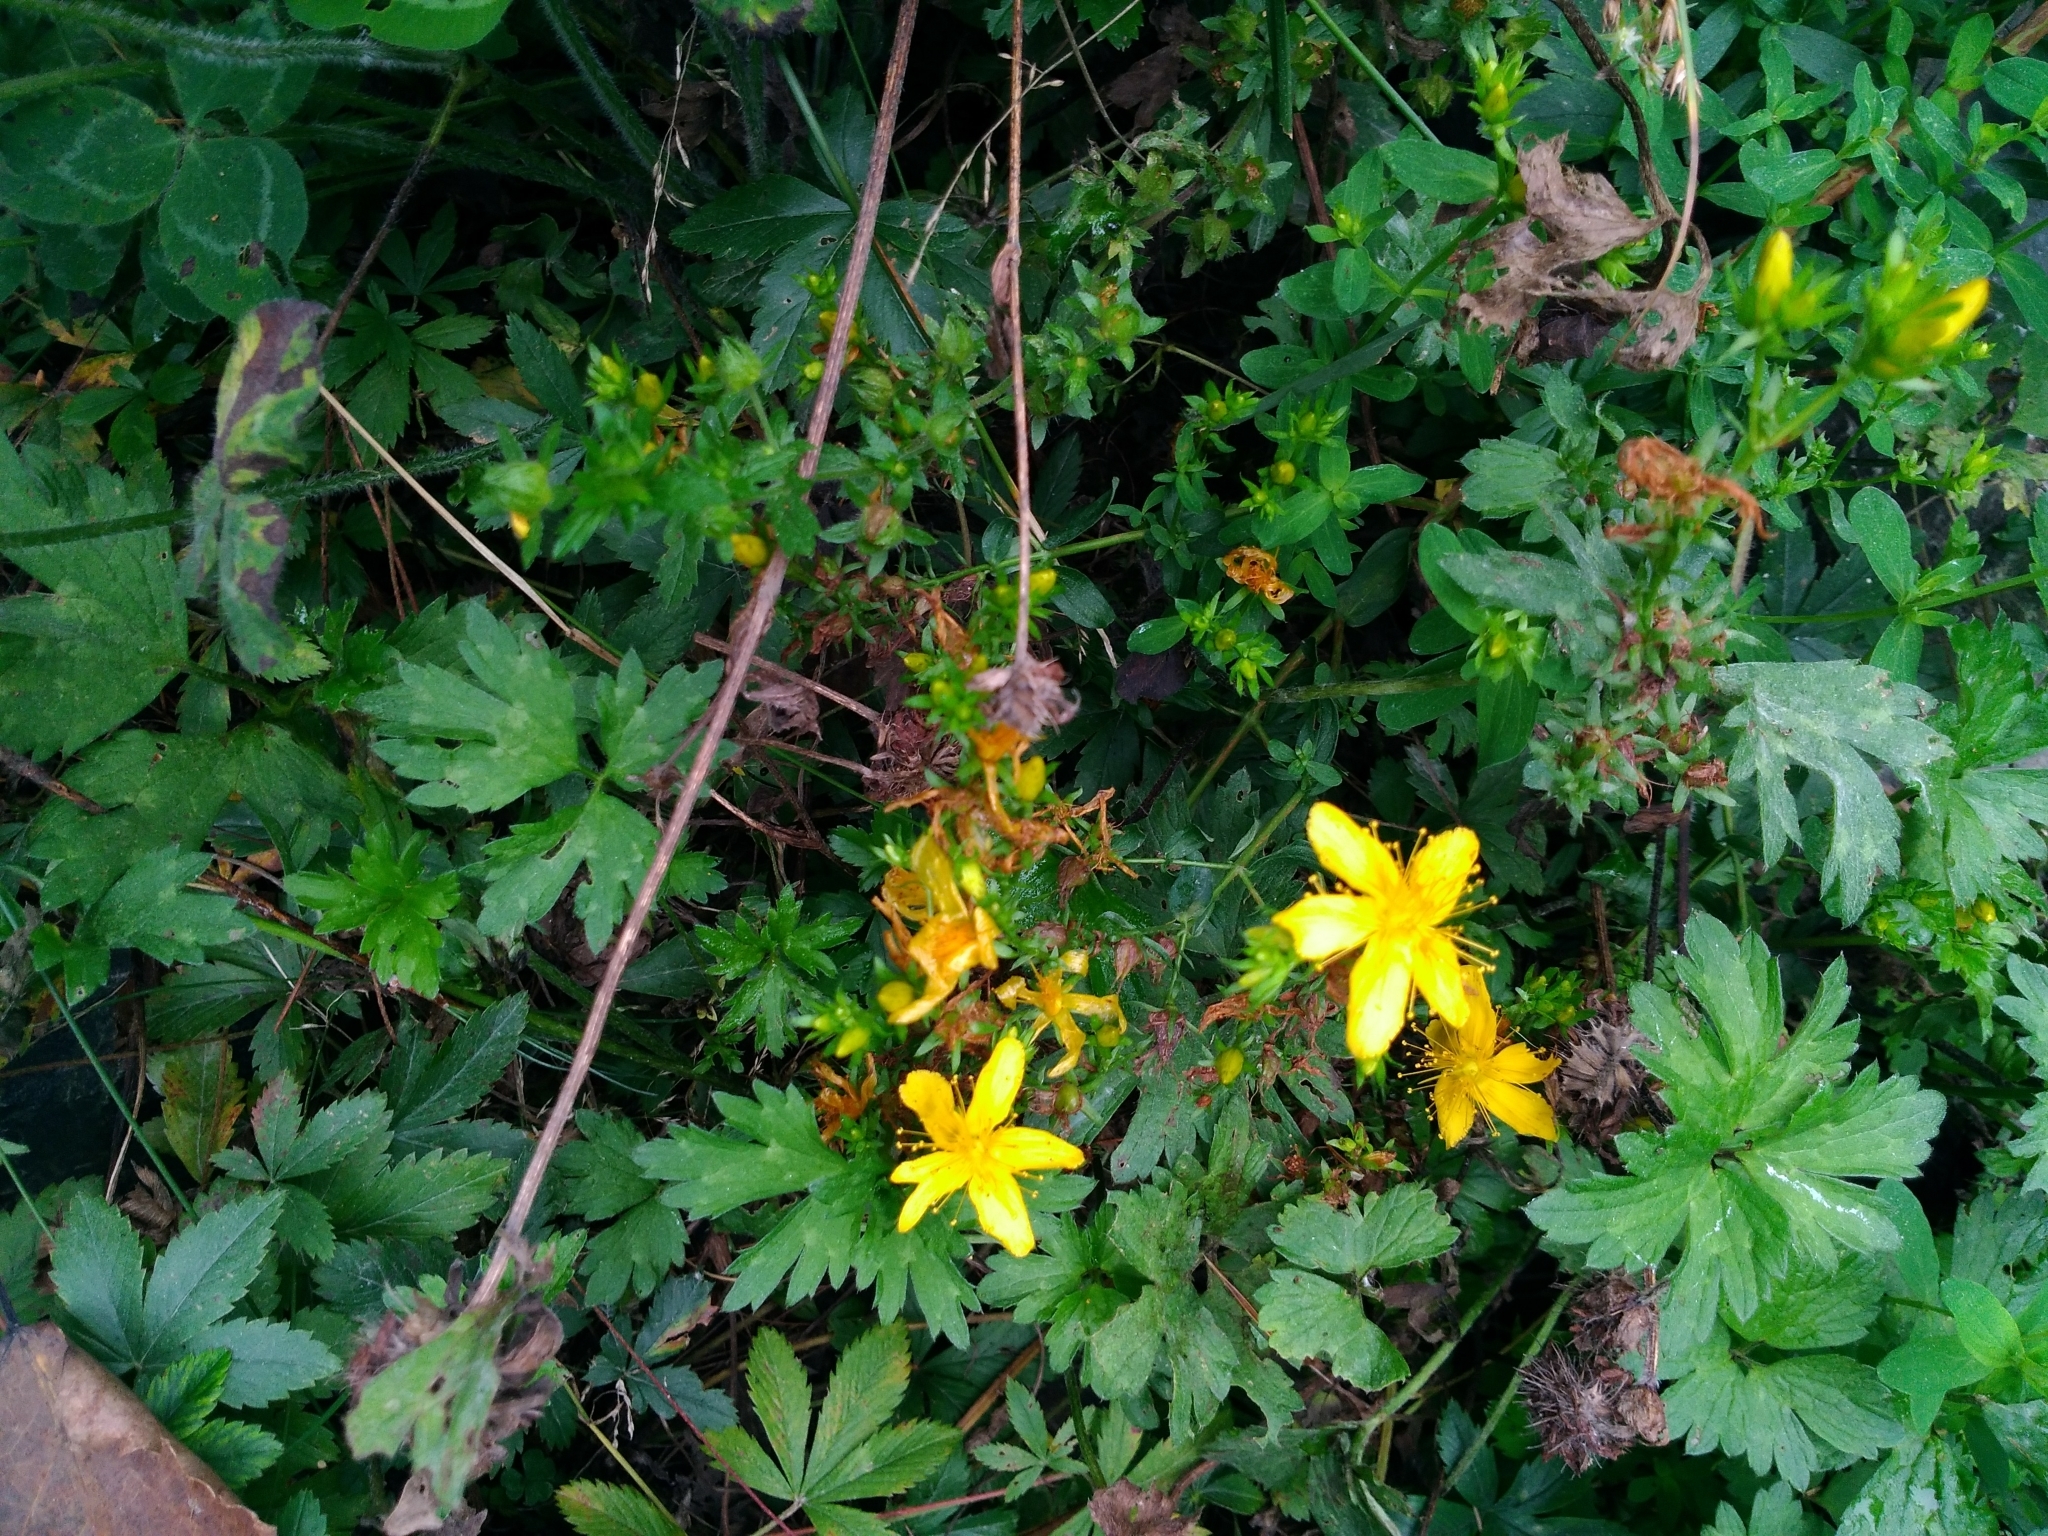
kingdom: Plantae
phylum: Tracheophyta
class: Magnoliopsida
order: Malpighiales
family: Hypericaceae
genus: Hypericum
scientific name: Hypericum perforatum
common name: Common st. johnswort
